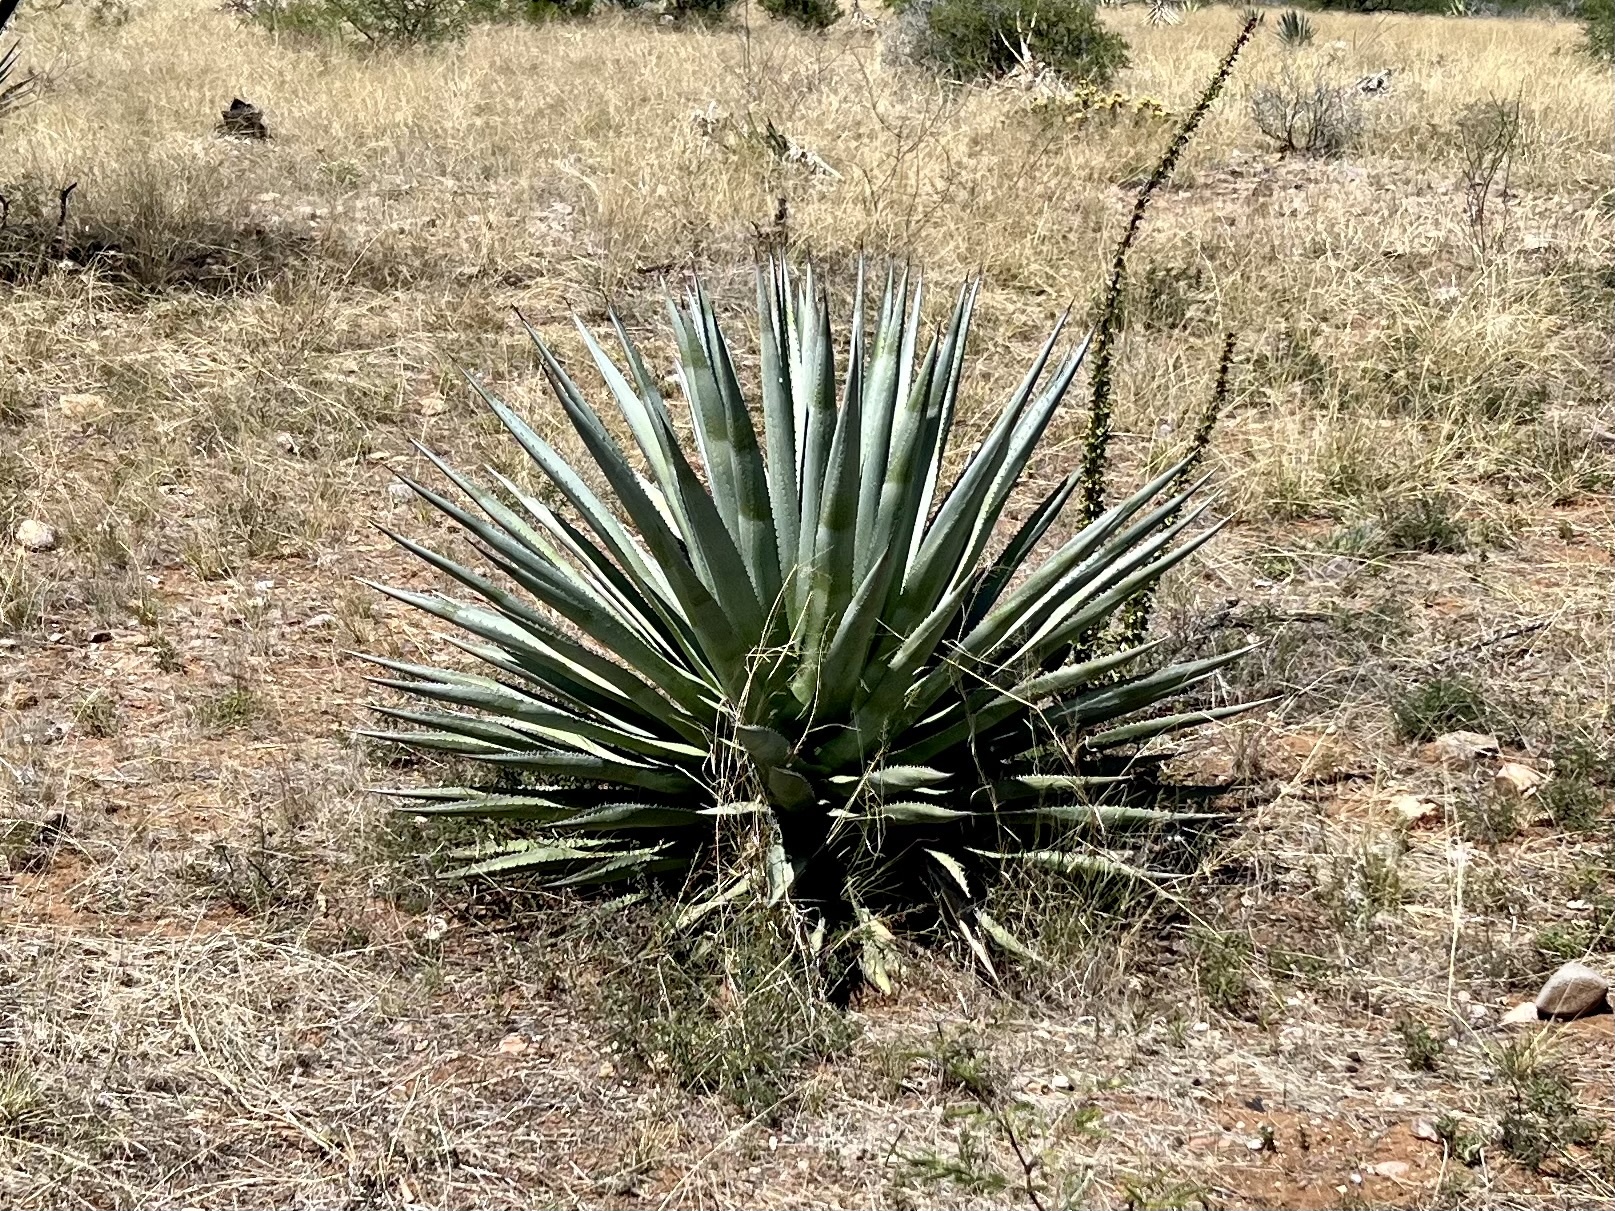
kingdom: Plantae
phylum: Tracheophyta
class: Liliopsida
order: Asparagales
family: Asparagaceae
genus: Agave
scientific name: Agave palmeri
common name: Palmer agave
